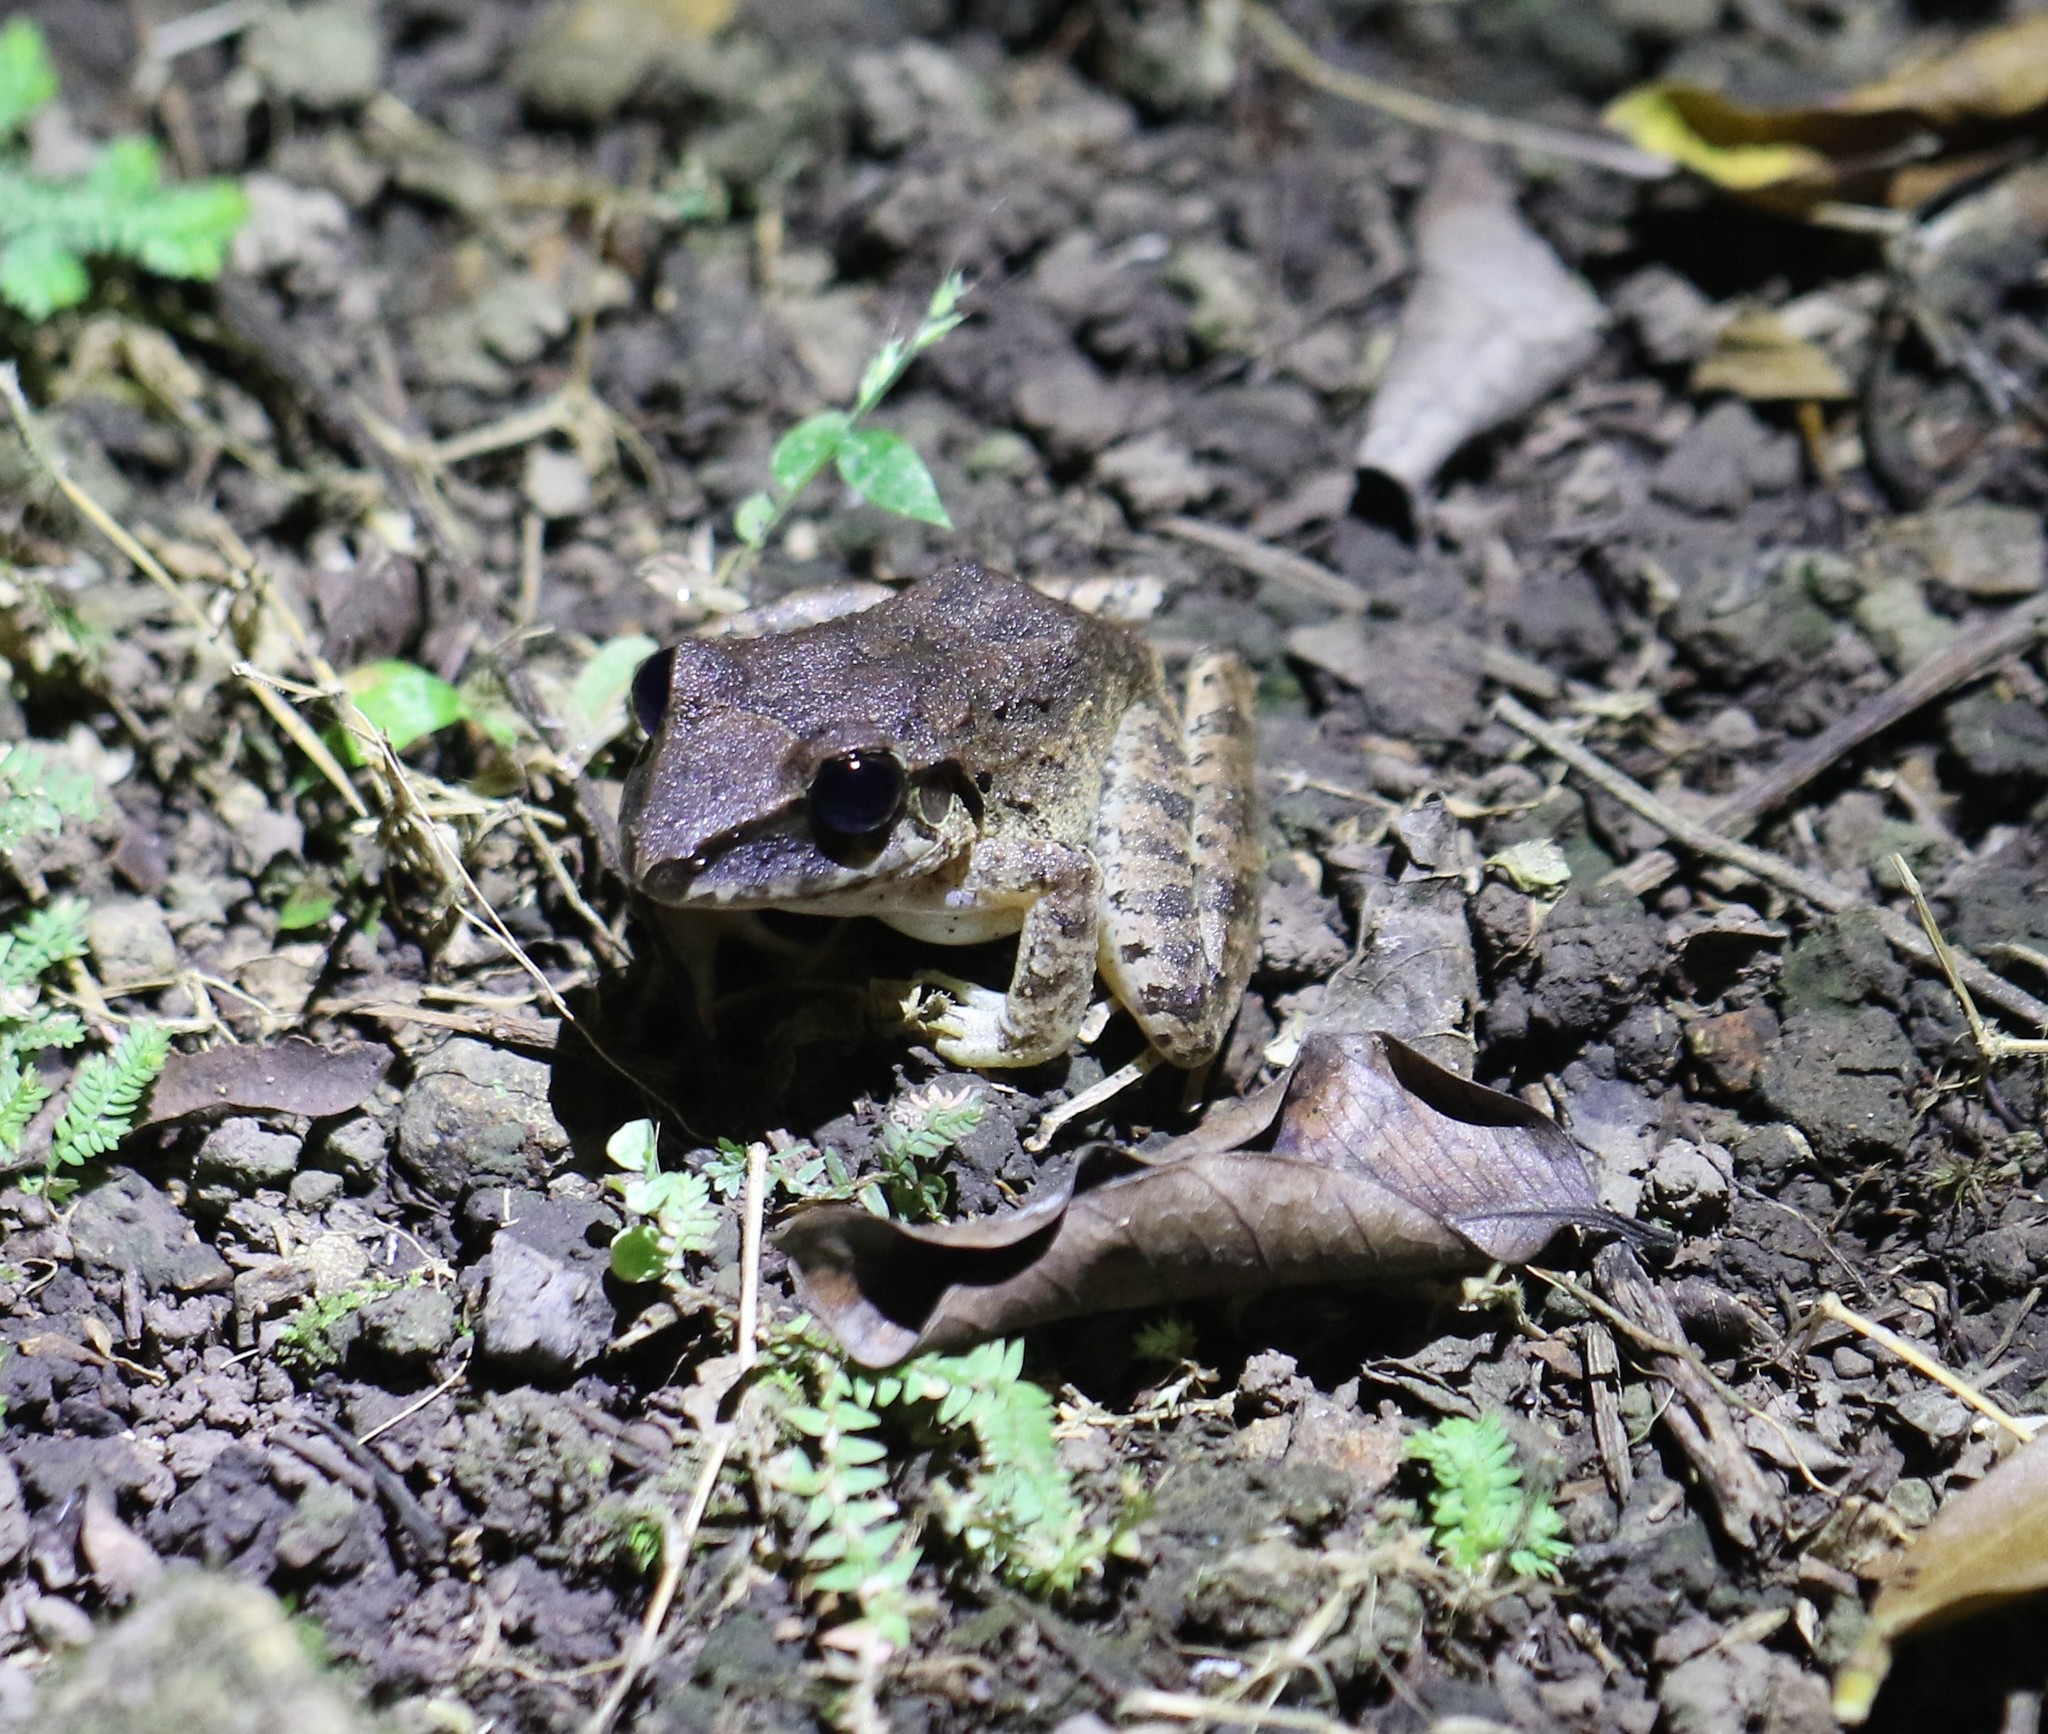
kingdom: Animalia
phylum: Chordata
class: Amphibia
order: Anura
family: Craugastoridae
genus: Craugastor
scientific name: Craugastor fitzingeri
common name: Fitzinger's robber frog
